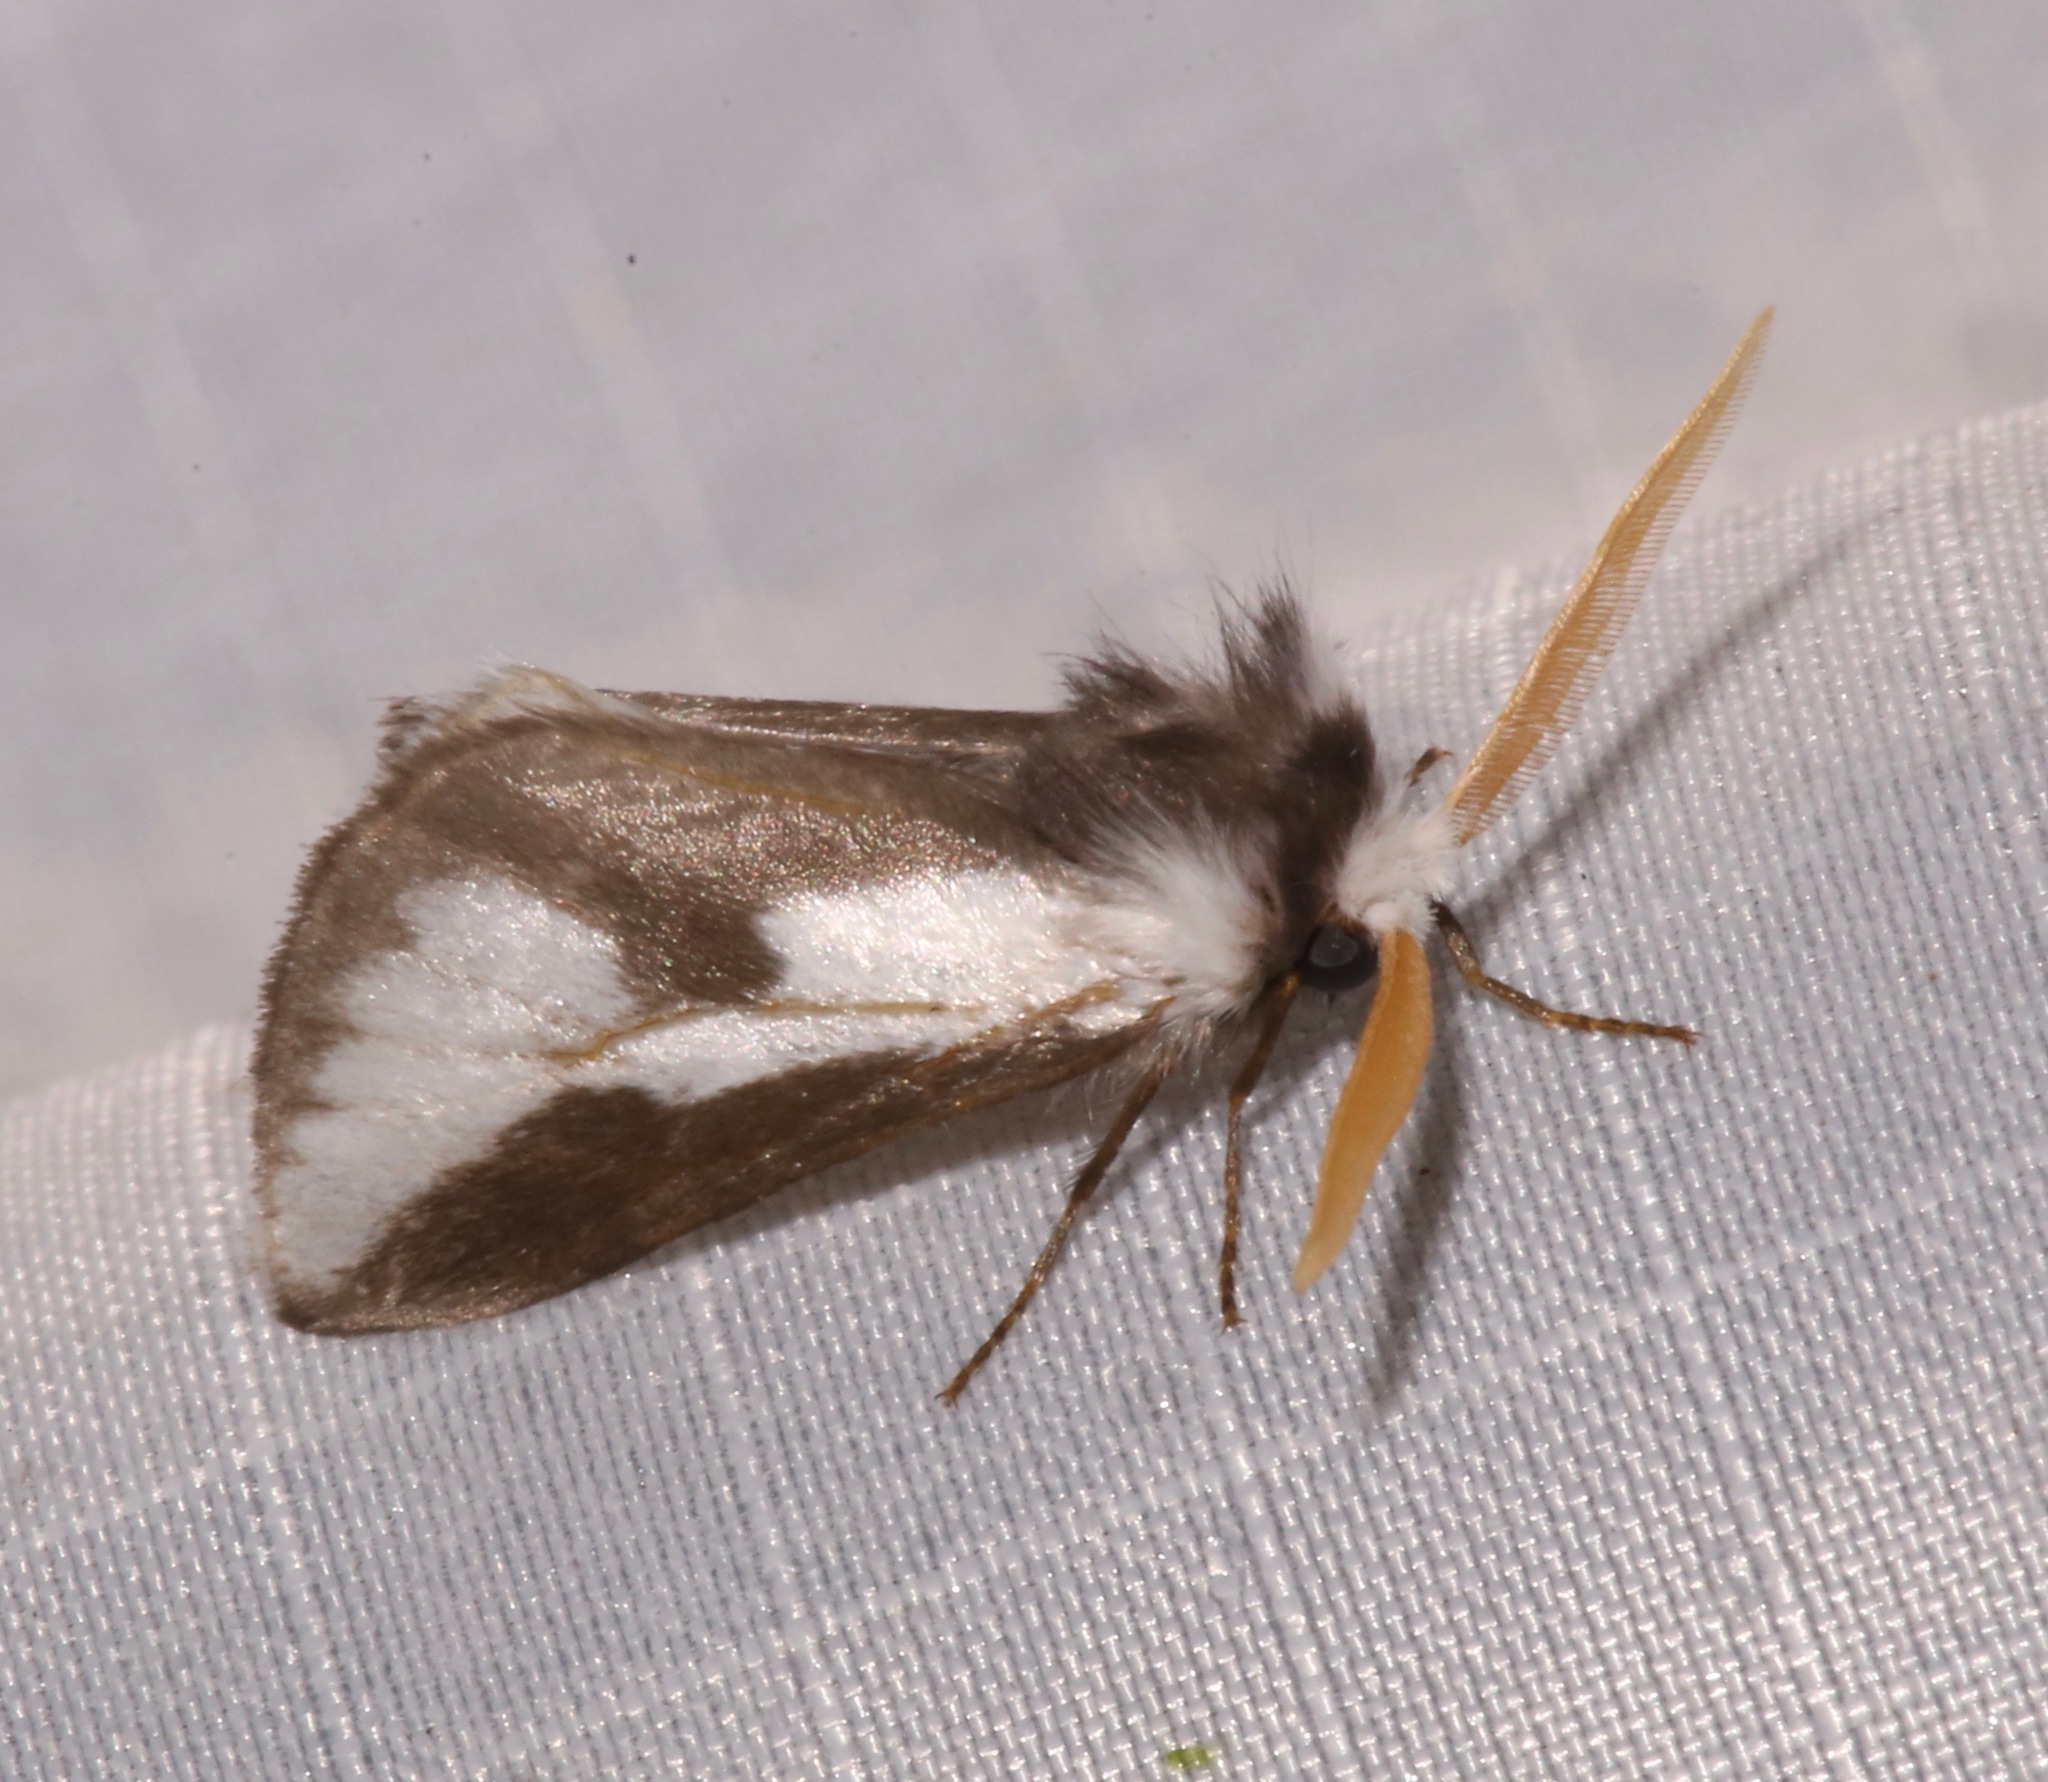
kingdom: Animalia
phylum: Arthropoda
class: Insecta
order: Lepidoptera
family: Megalopygidae
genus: Norape
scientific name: Norape tener
